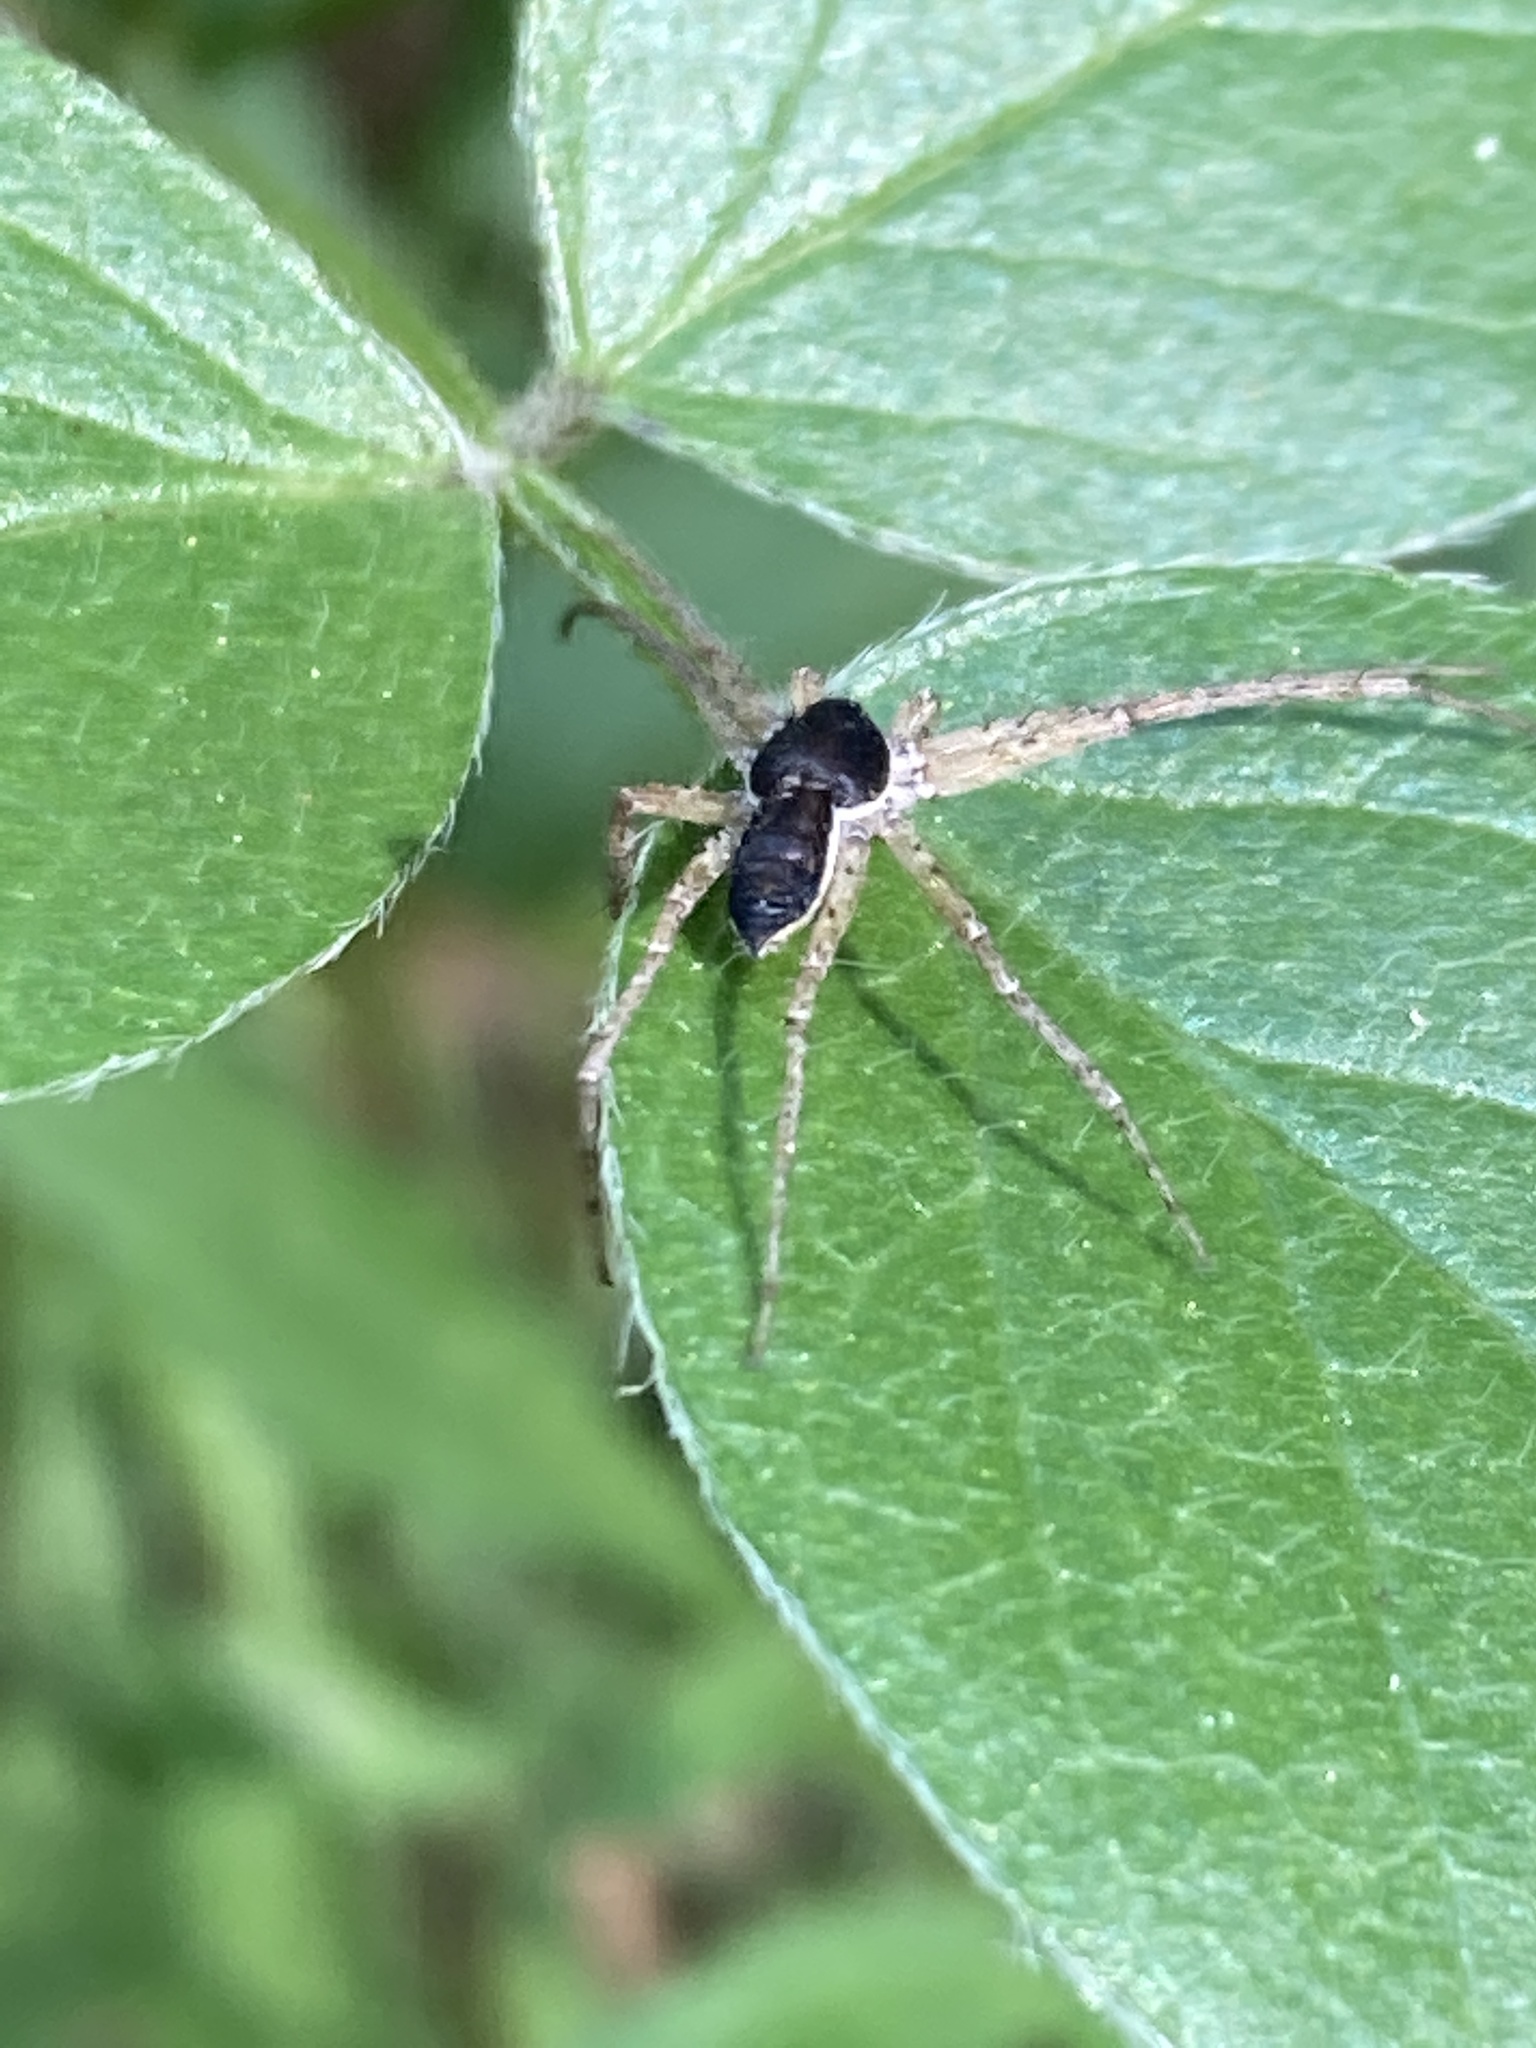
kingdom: Animalia
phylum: Arthropoda
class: Arachnida
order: Araneae
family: Philodromidae
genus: Philodromus
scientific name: Philodromus dispar
